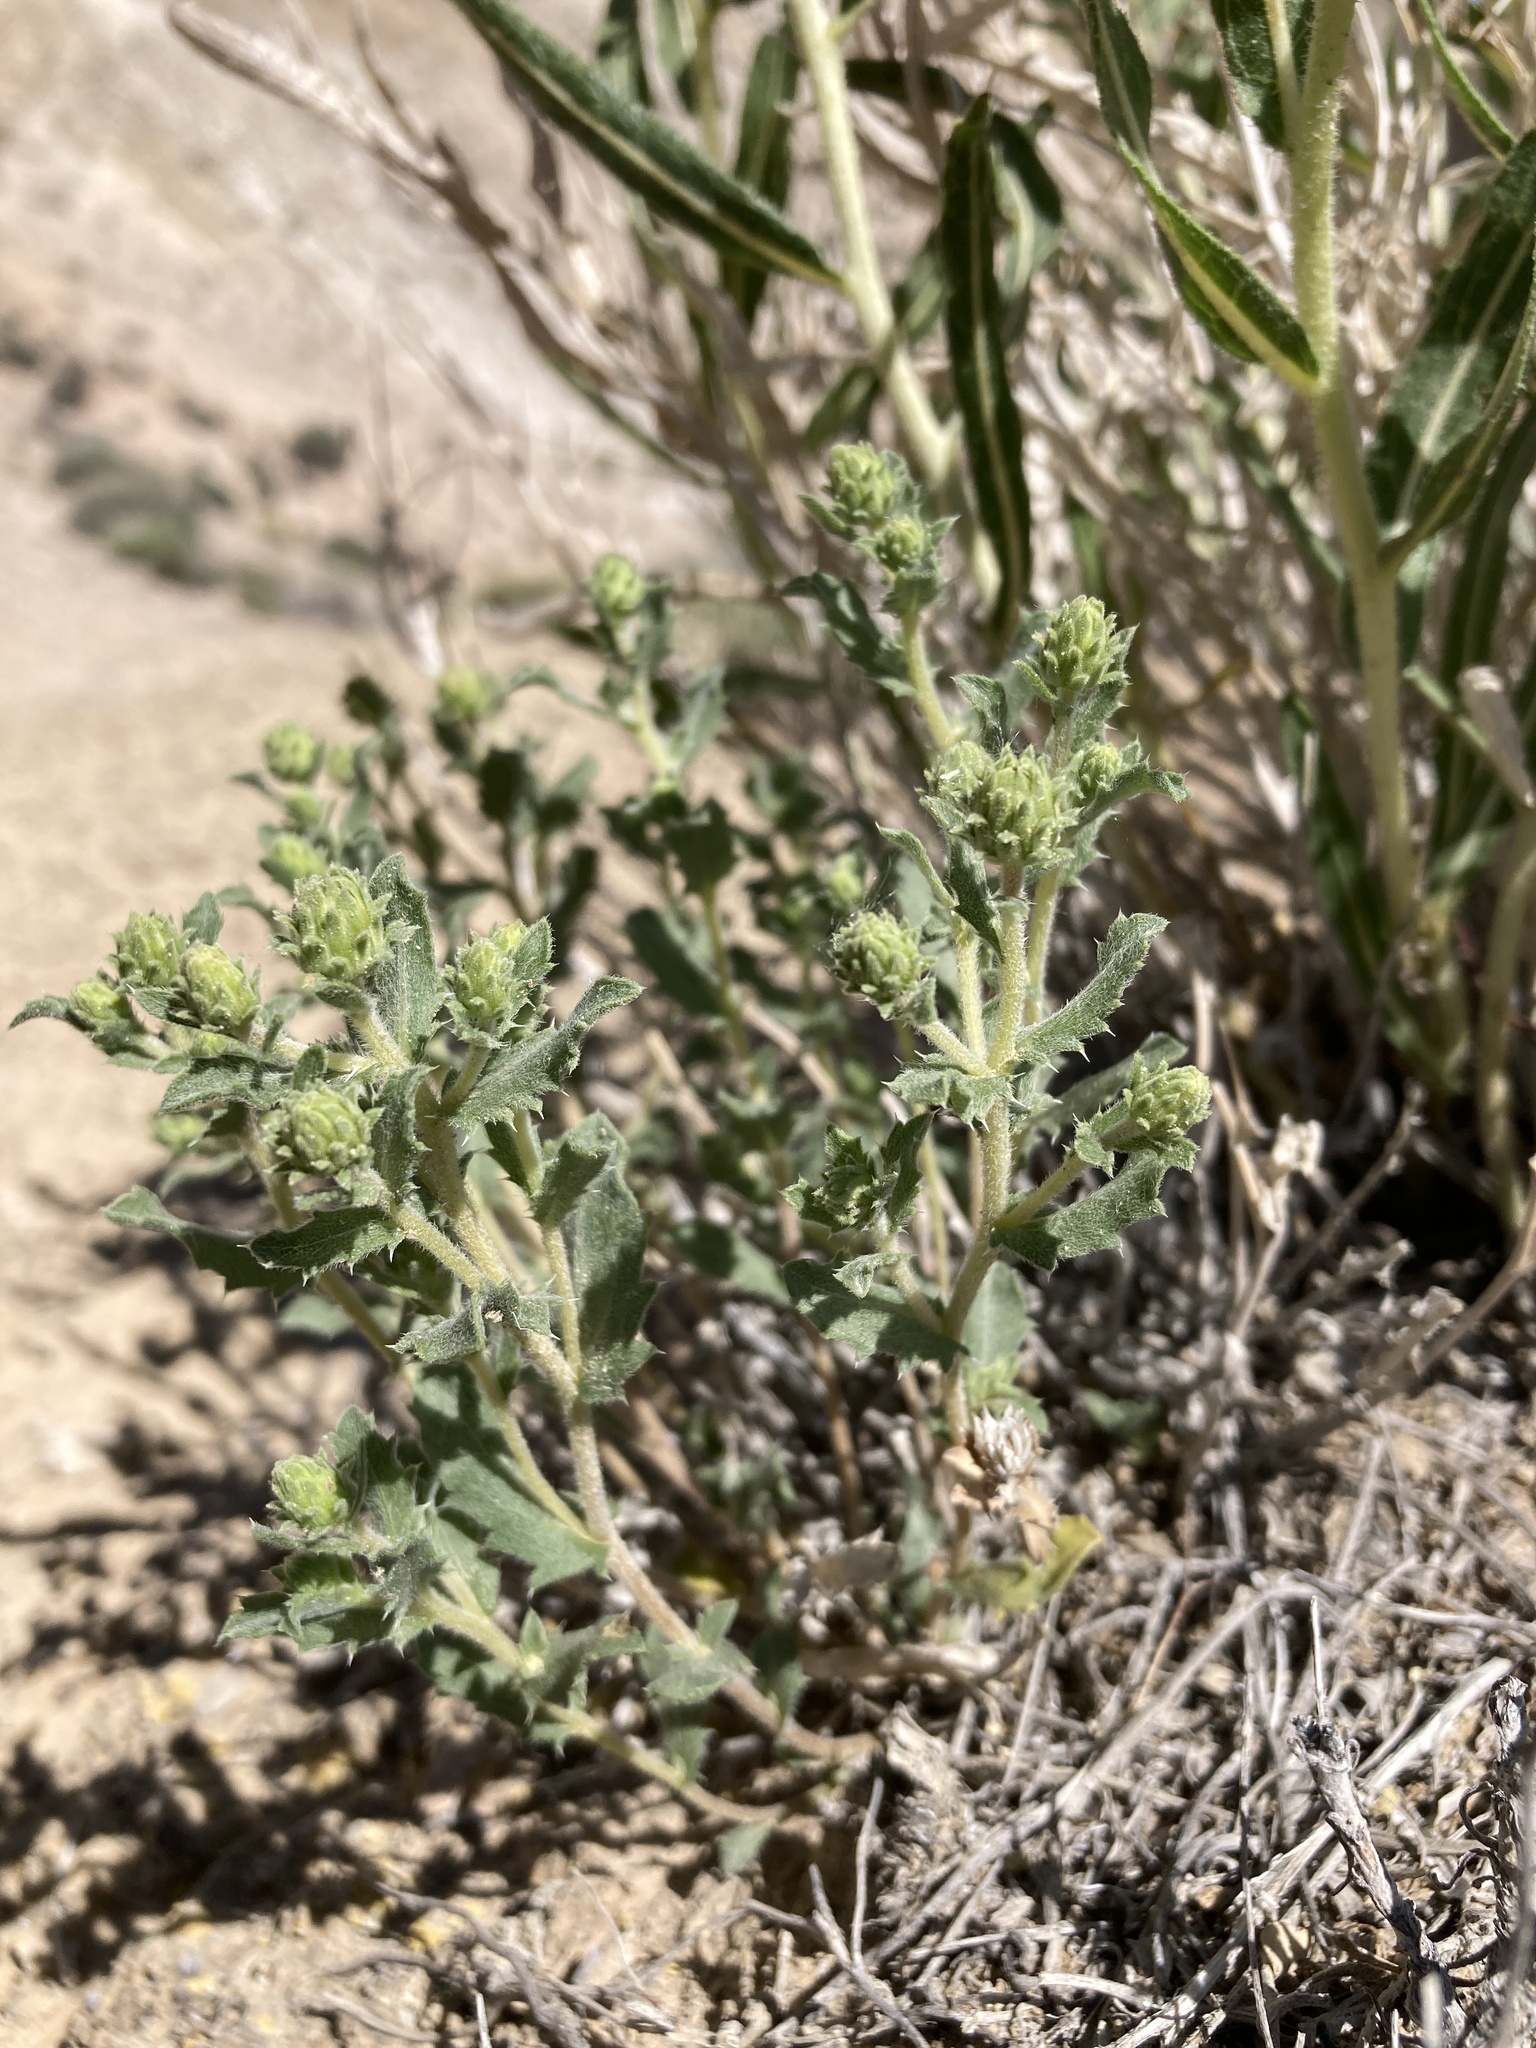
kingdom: Plantae
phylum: Tracheophyta
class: Magnoliopsida
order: Asterales
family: Asteraceae
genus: Xanthisma
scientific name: Xanthisma grindelioides
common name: Goldenweed
